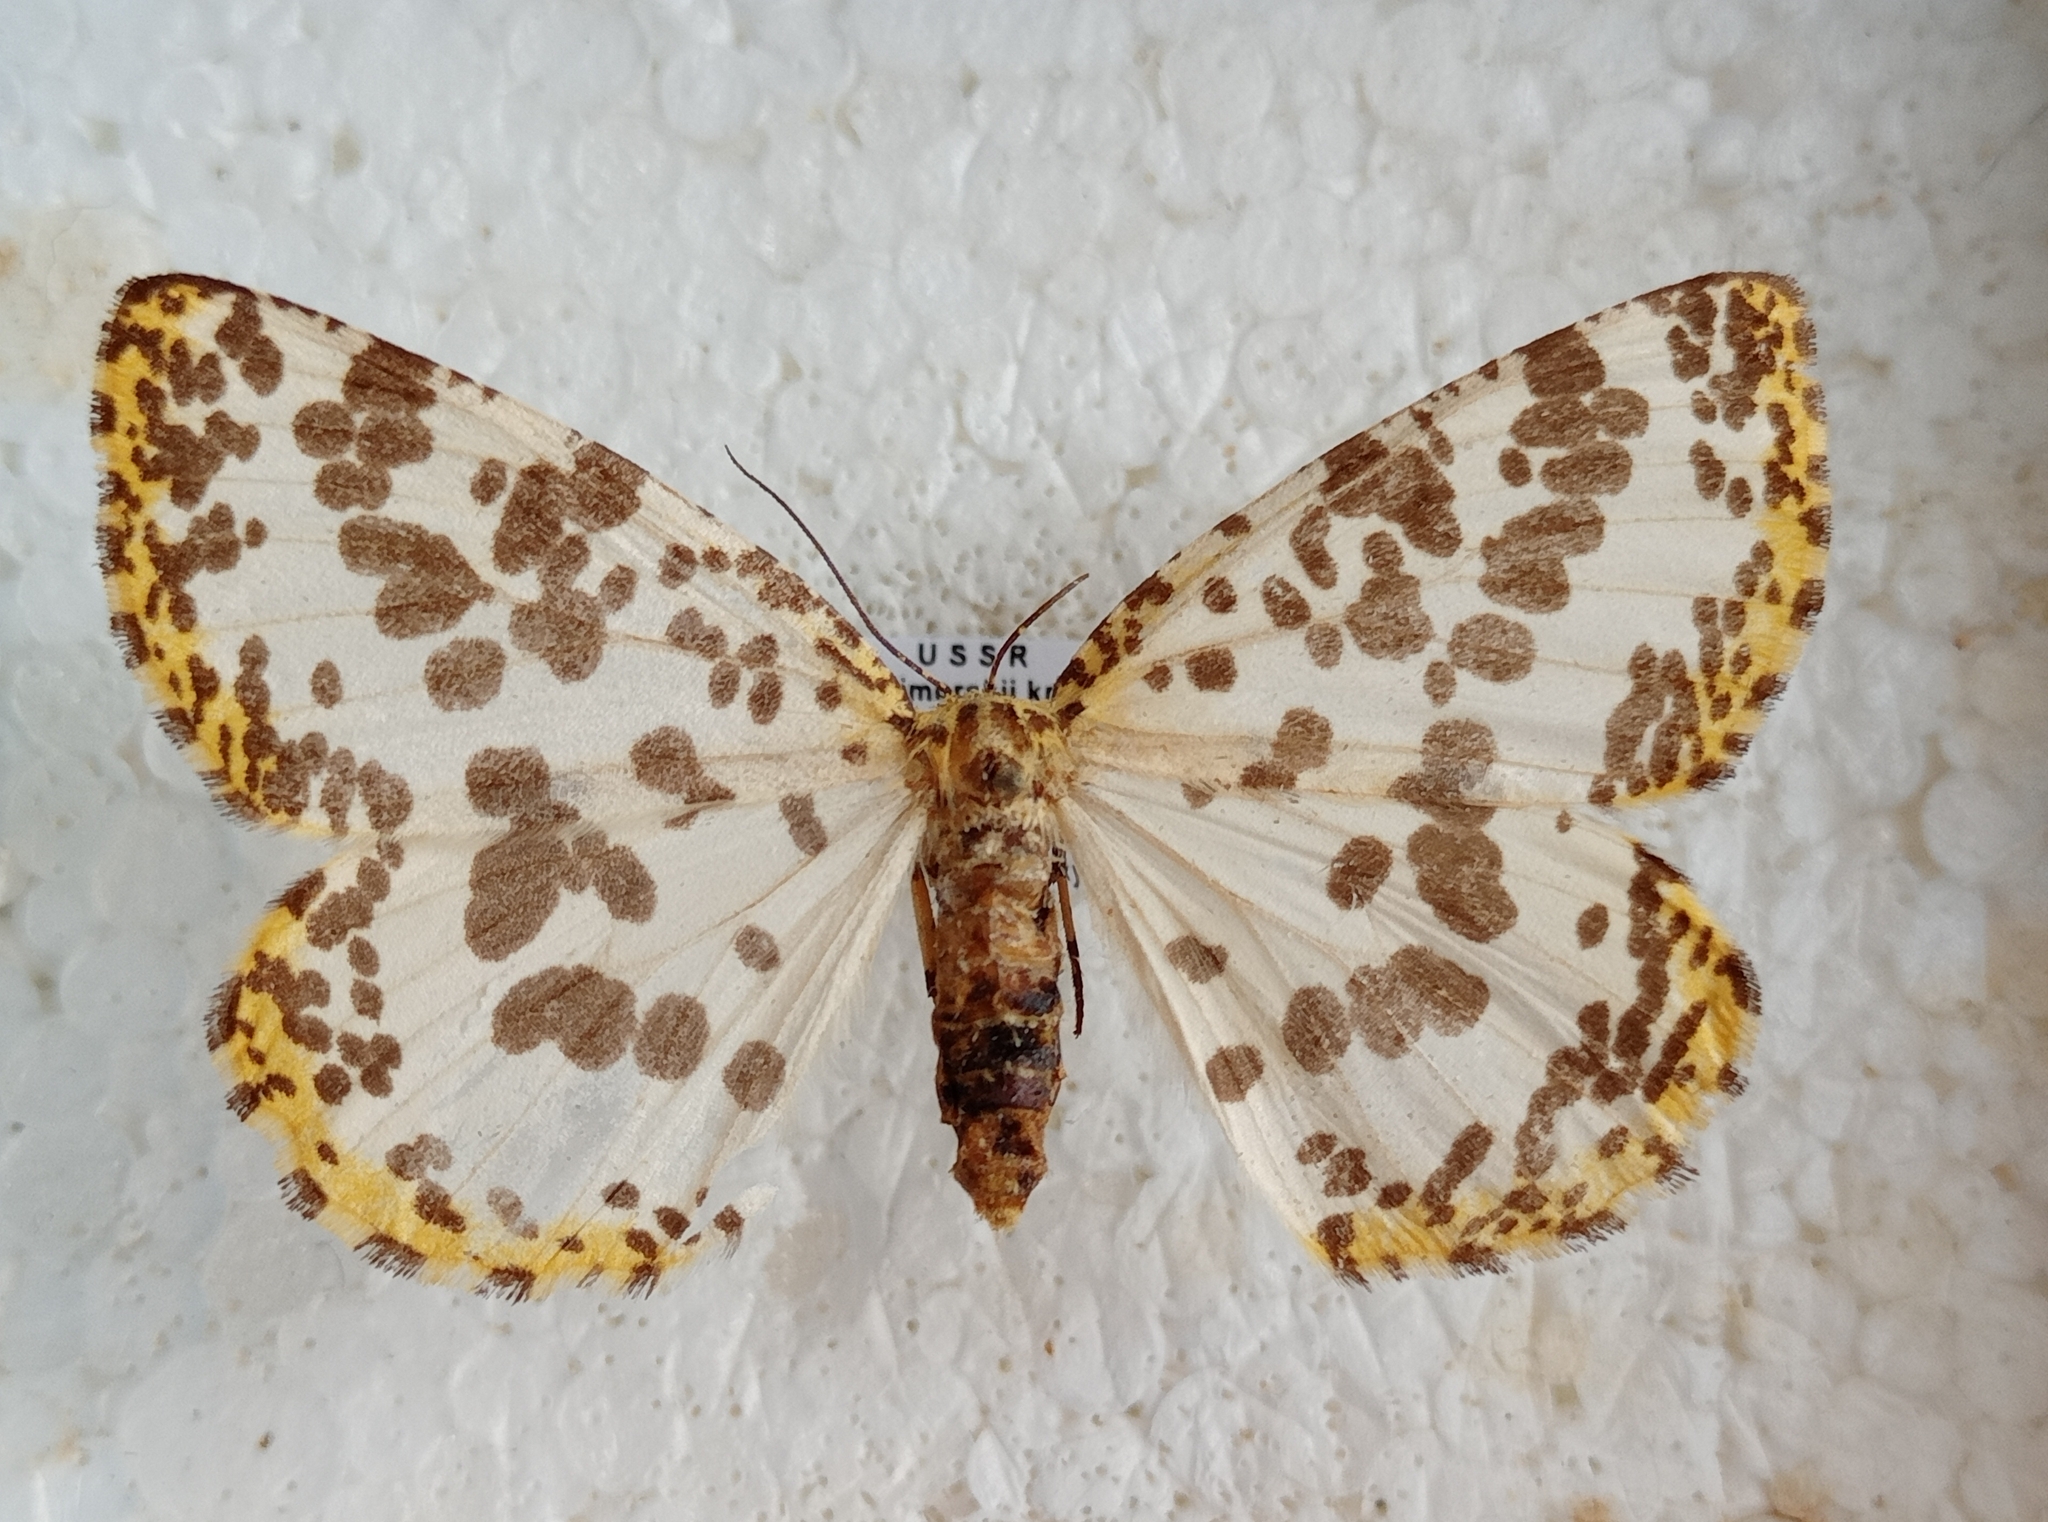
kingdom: Animalia
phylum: Arthropoda
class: Insecta
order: Lepidoptera
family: Geometridae
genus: Diaprepesilla
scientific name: Diaprepesilla flavomarginaria
